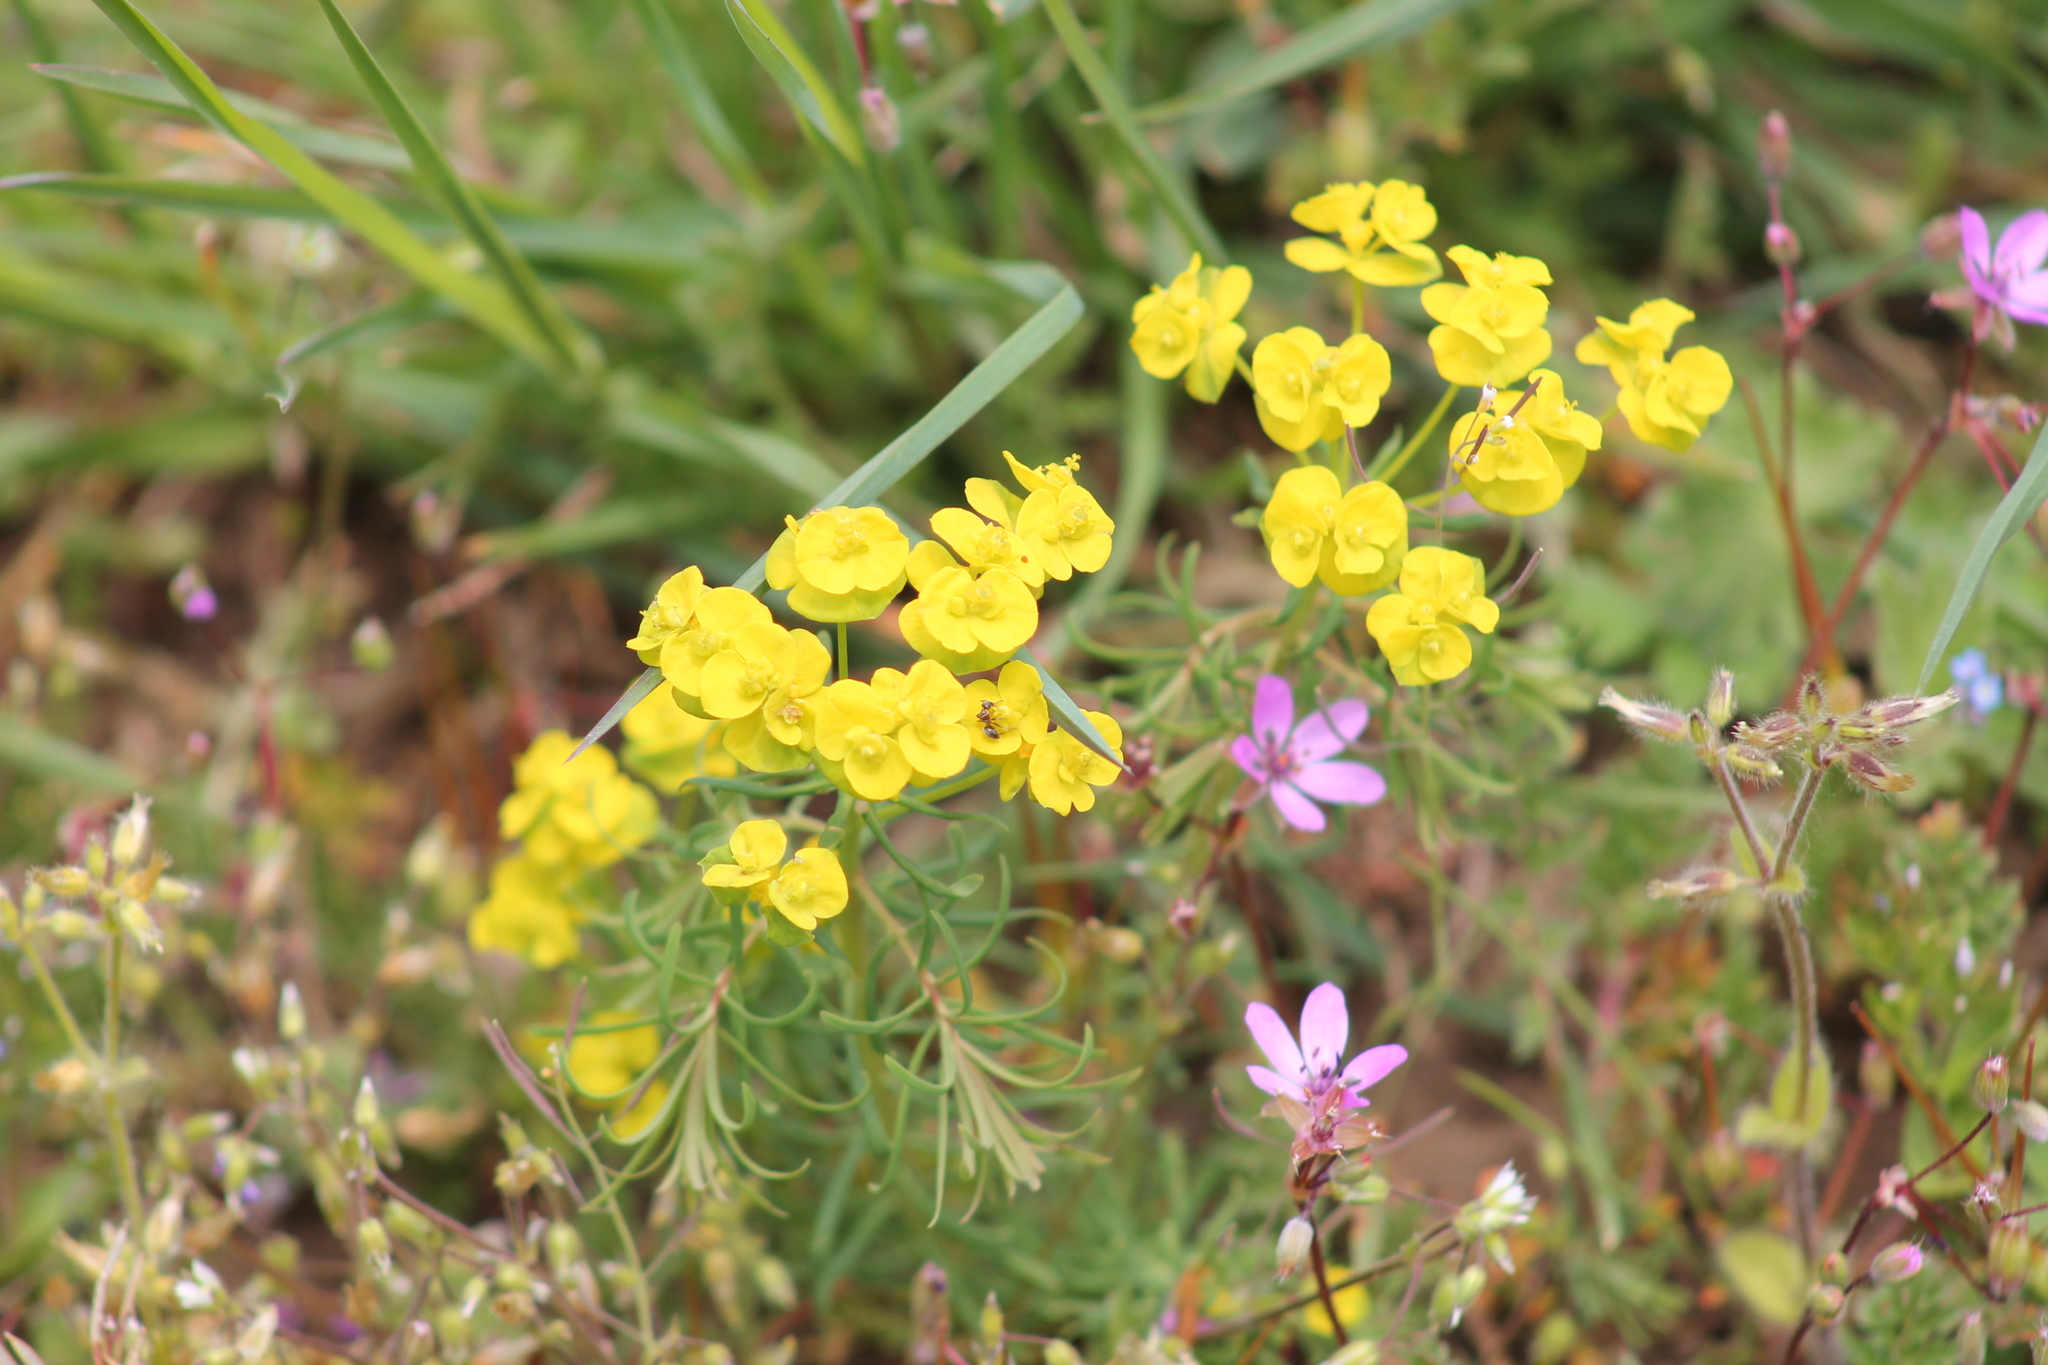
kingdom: Plantae
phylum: Tracheophyta
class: Magnoliopsida
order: Malpighiales
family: Euphorbiaceae
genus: Euphorbia
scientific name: Euphorbia cyparissias
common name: Cypress spurge
